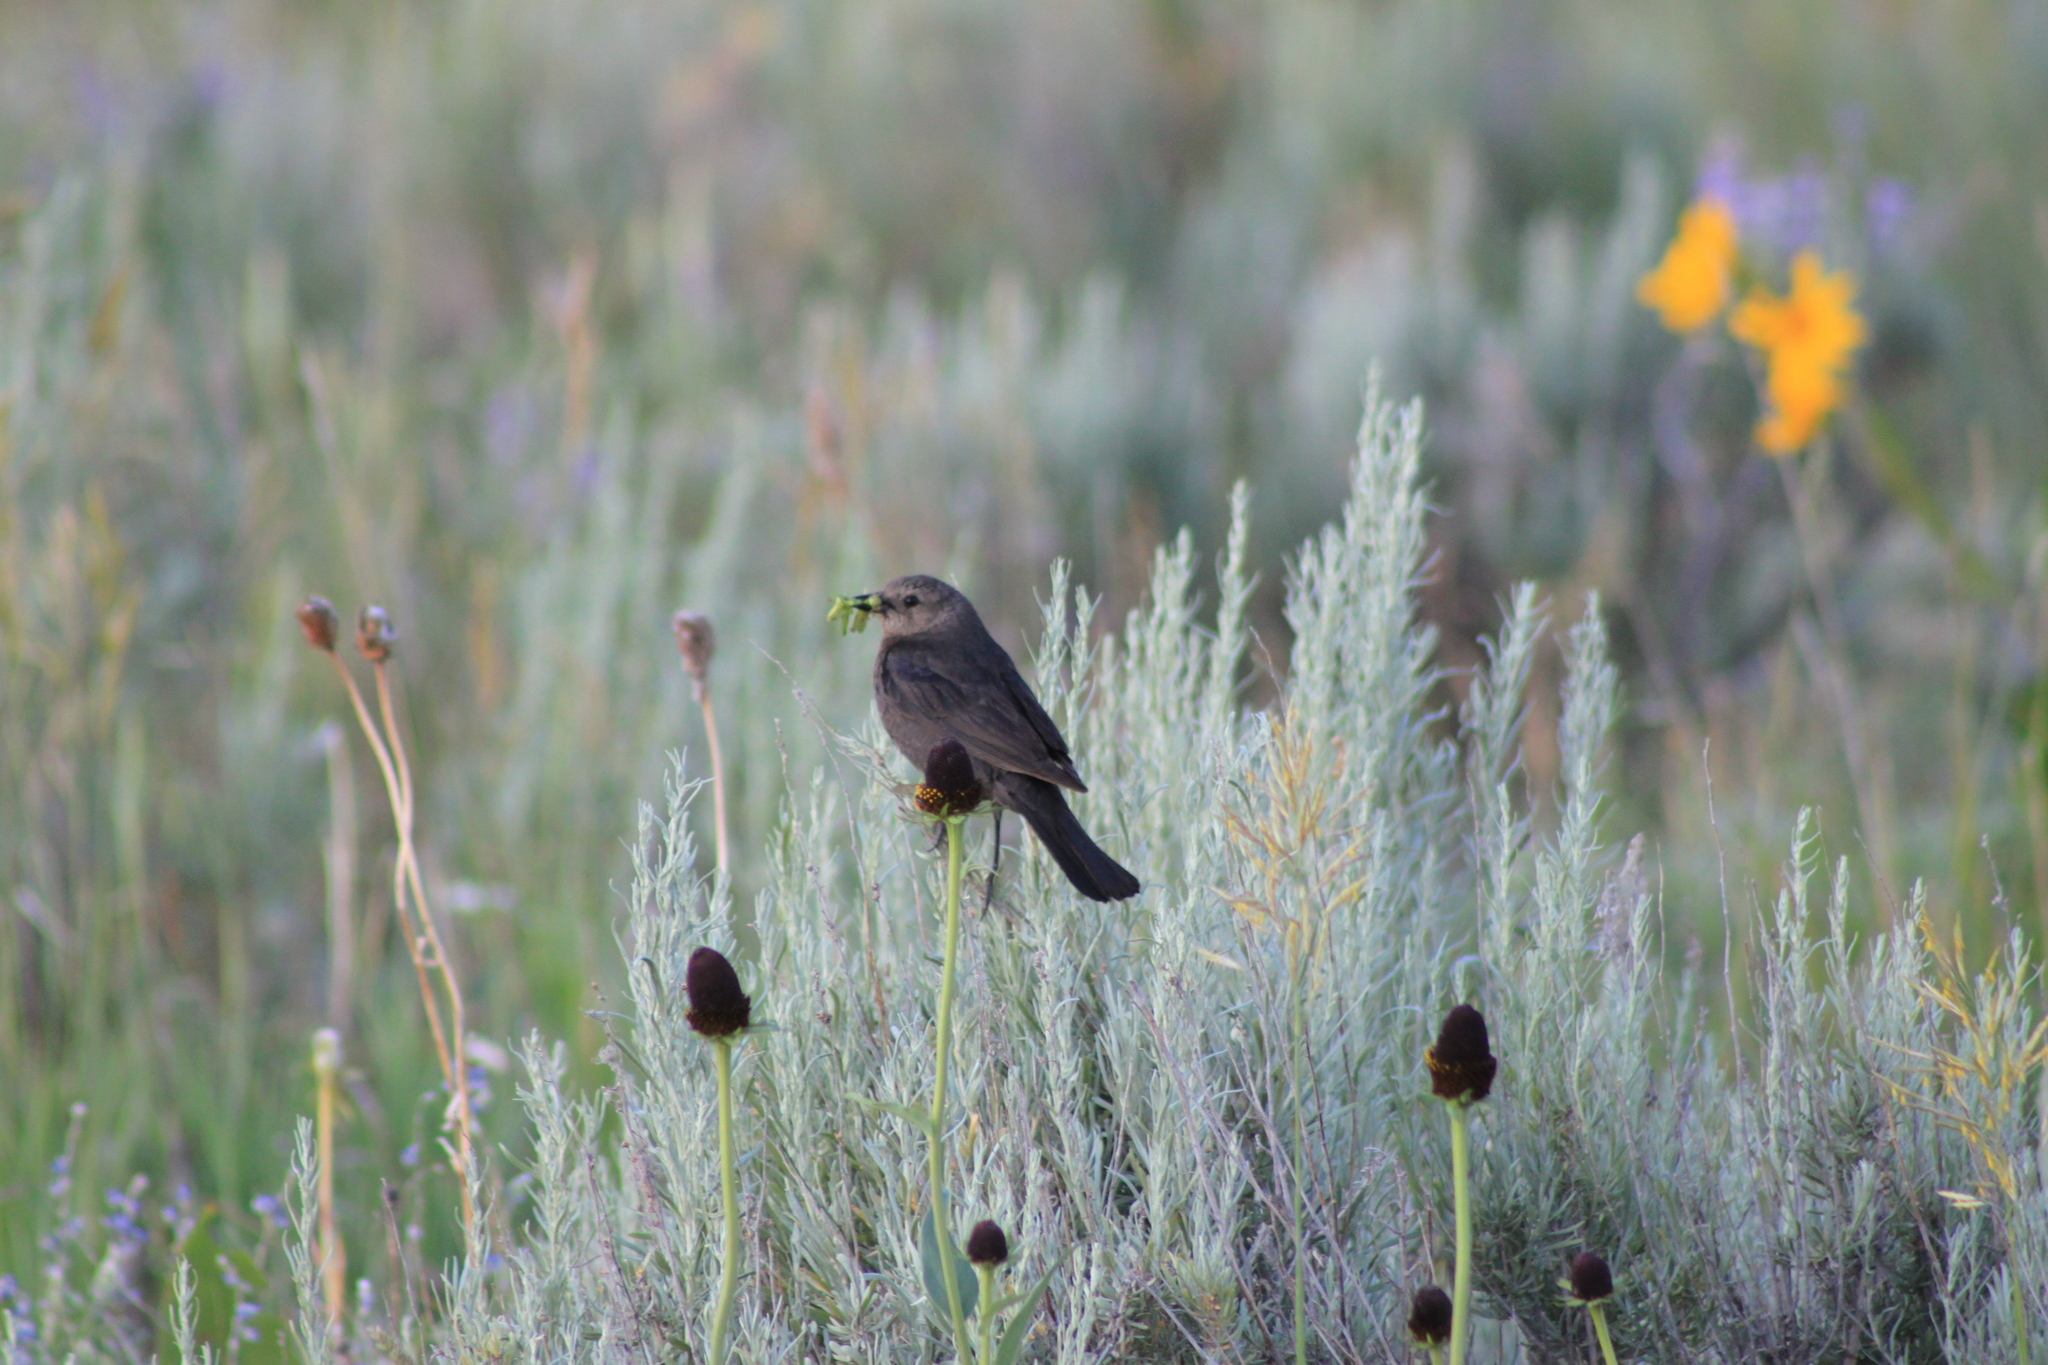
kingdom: Animalia
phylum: Chordata
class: Aves
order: Passeriformes
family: Icteridae
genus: Euphagus
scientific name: Euphagus cyanocephalus
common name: Brewer's blackbird
